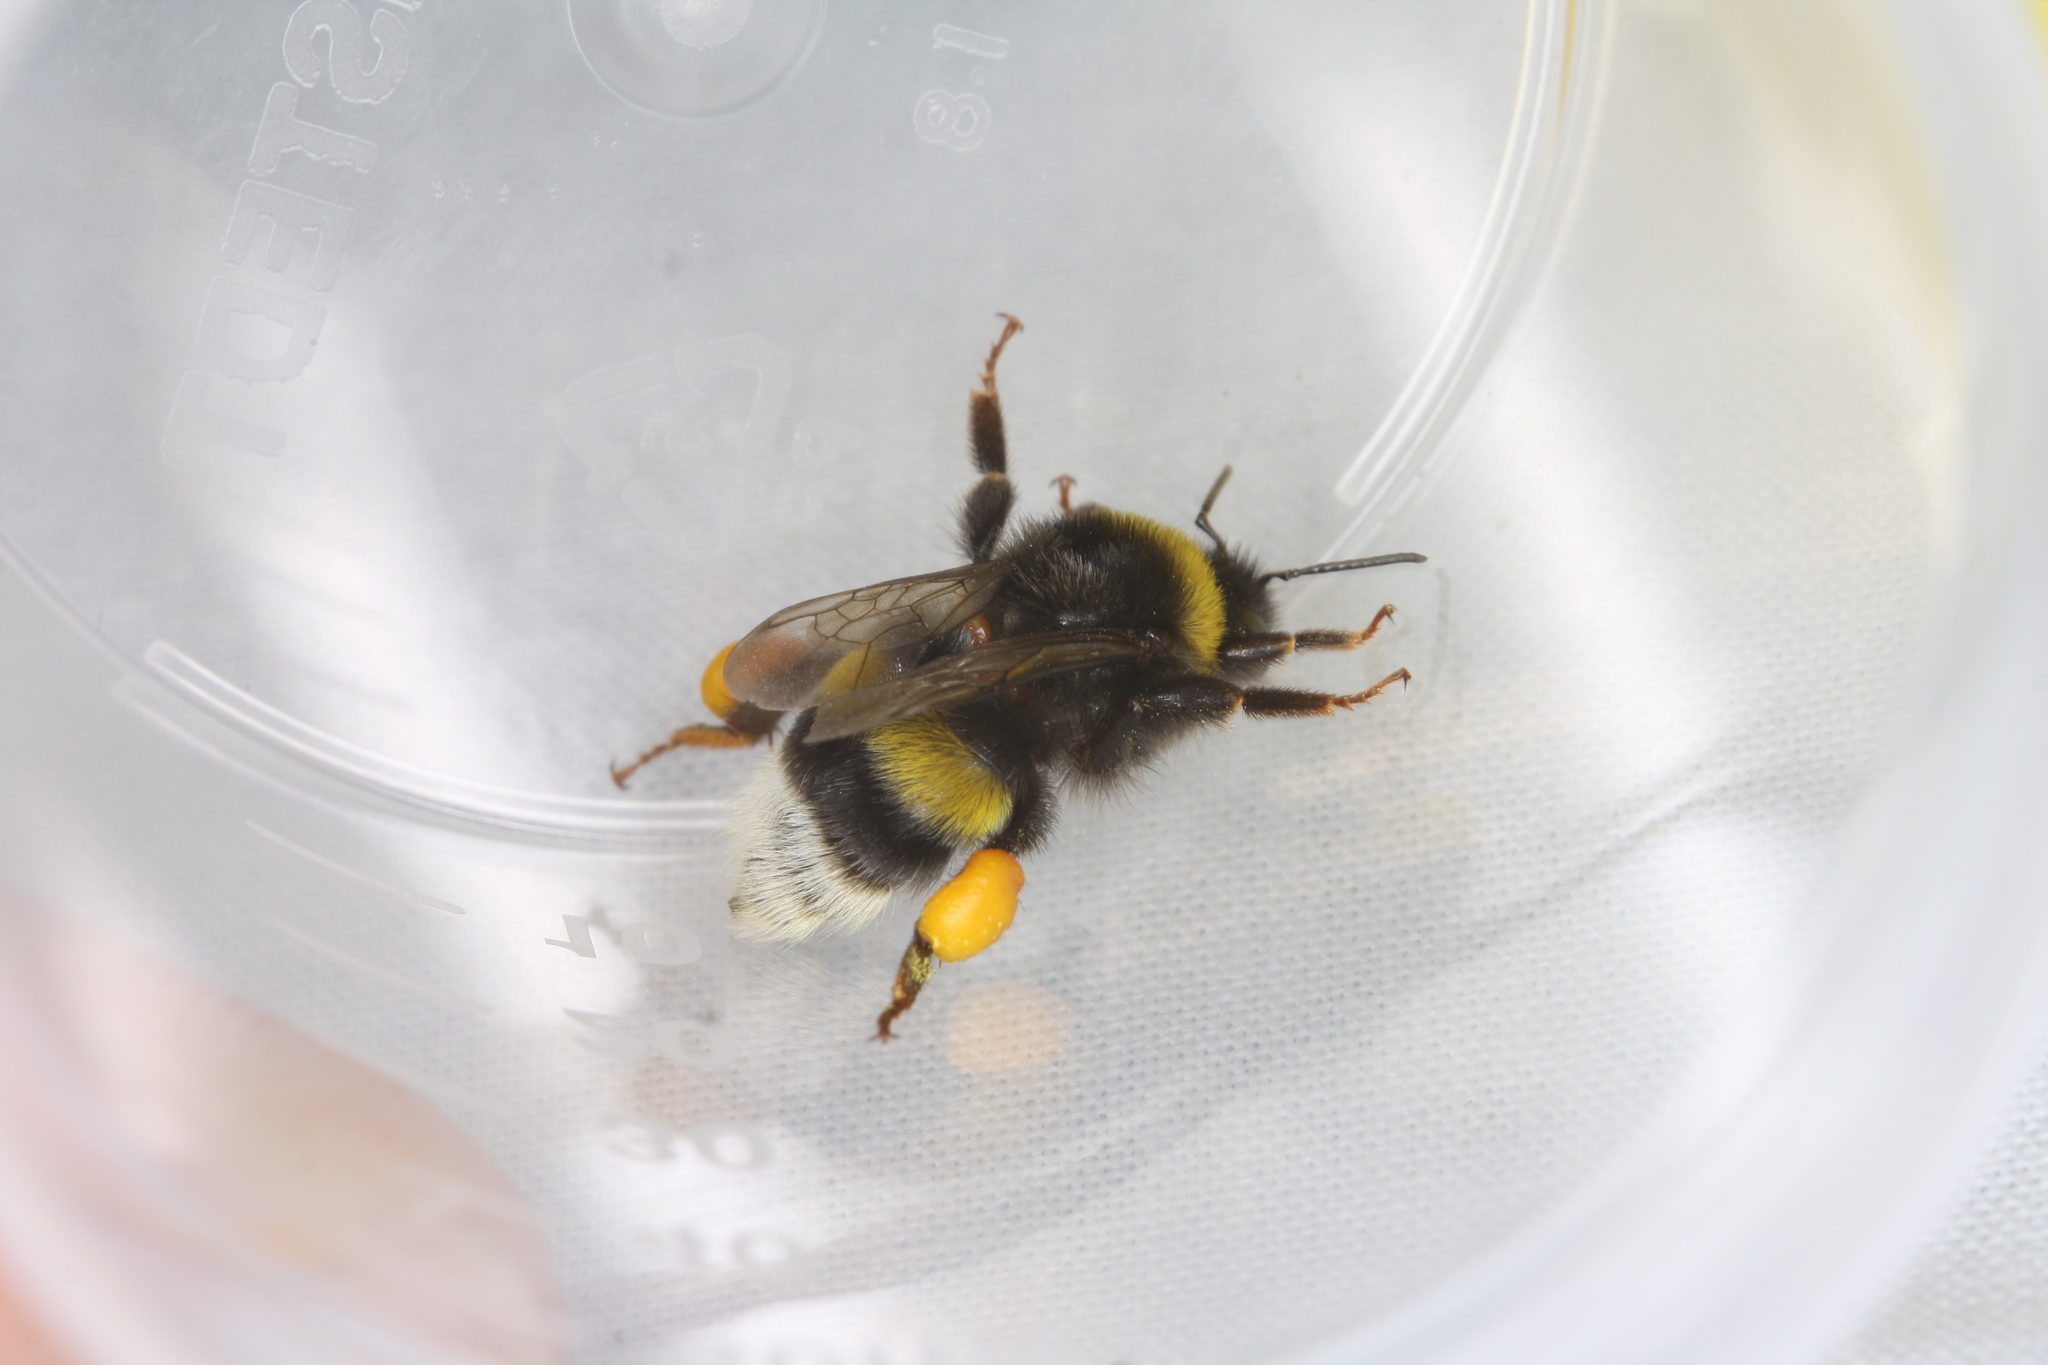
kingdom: Animalia
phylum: Arthropoda
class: Insecta
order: Hymenoptera
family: Apidae
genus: Bombus
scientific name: Bombus
